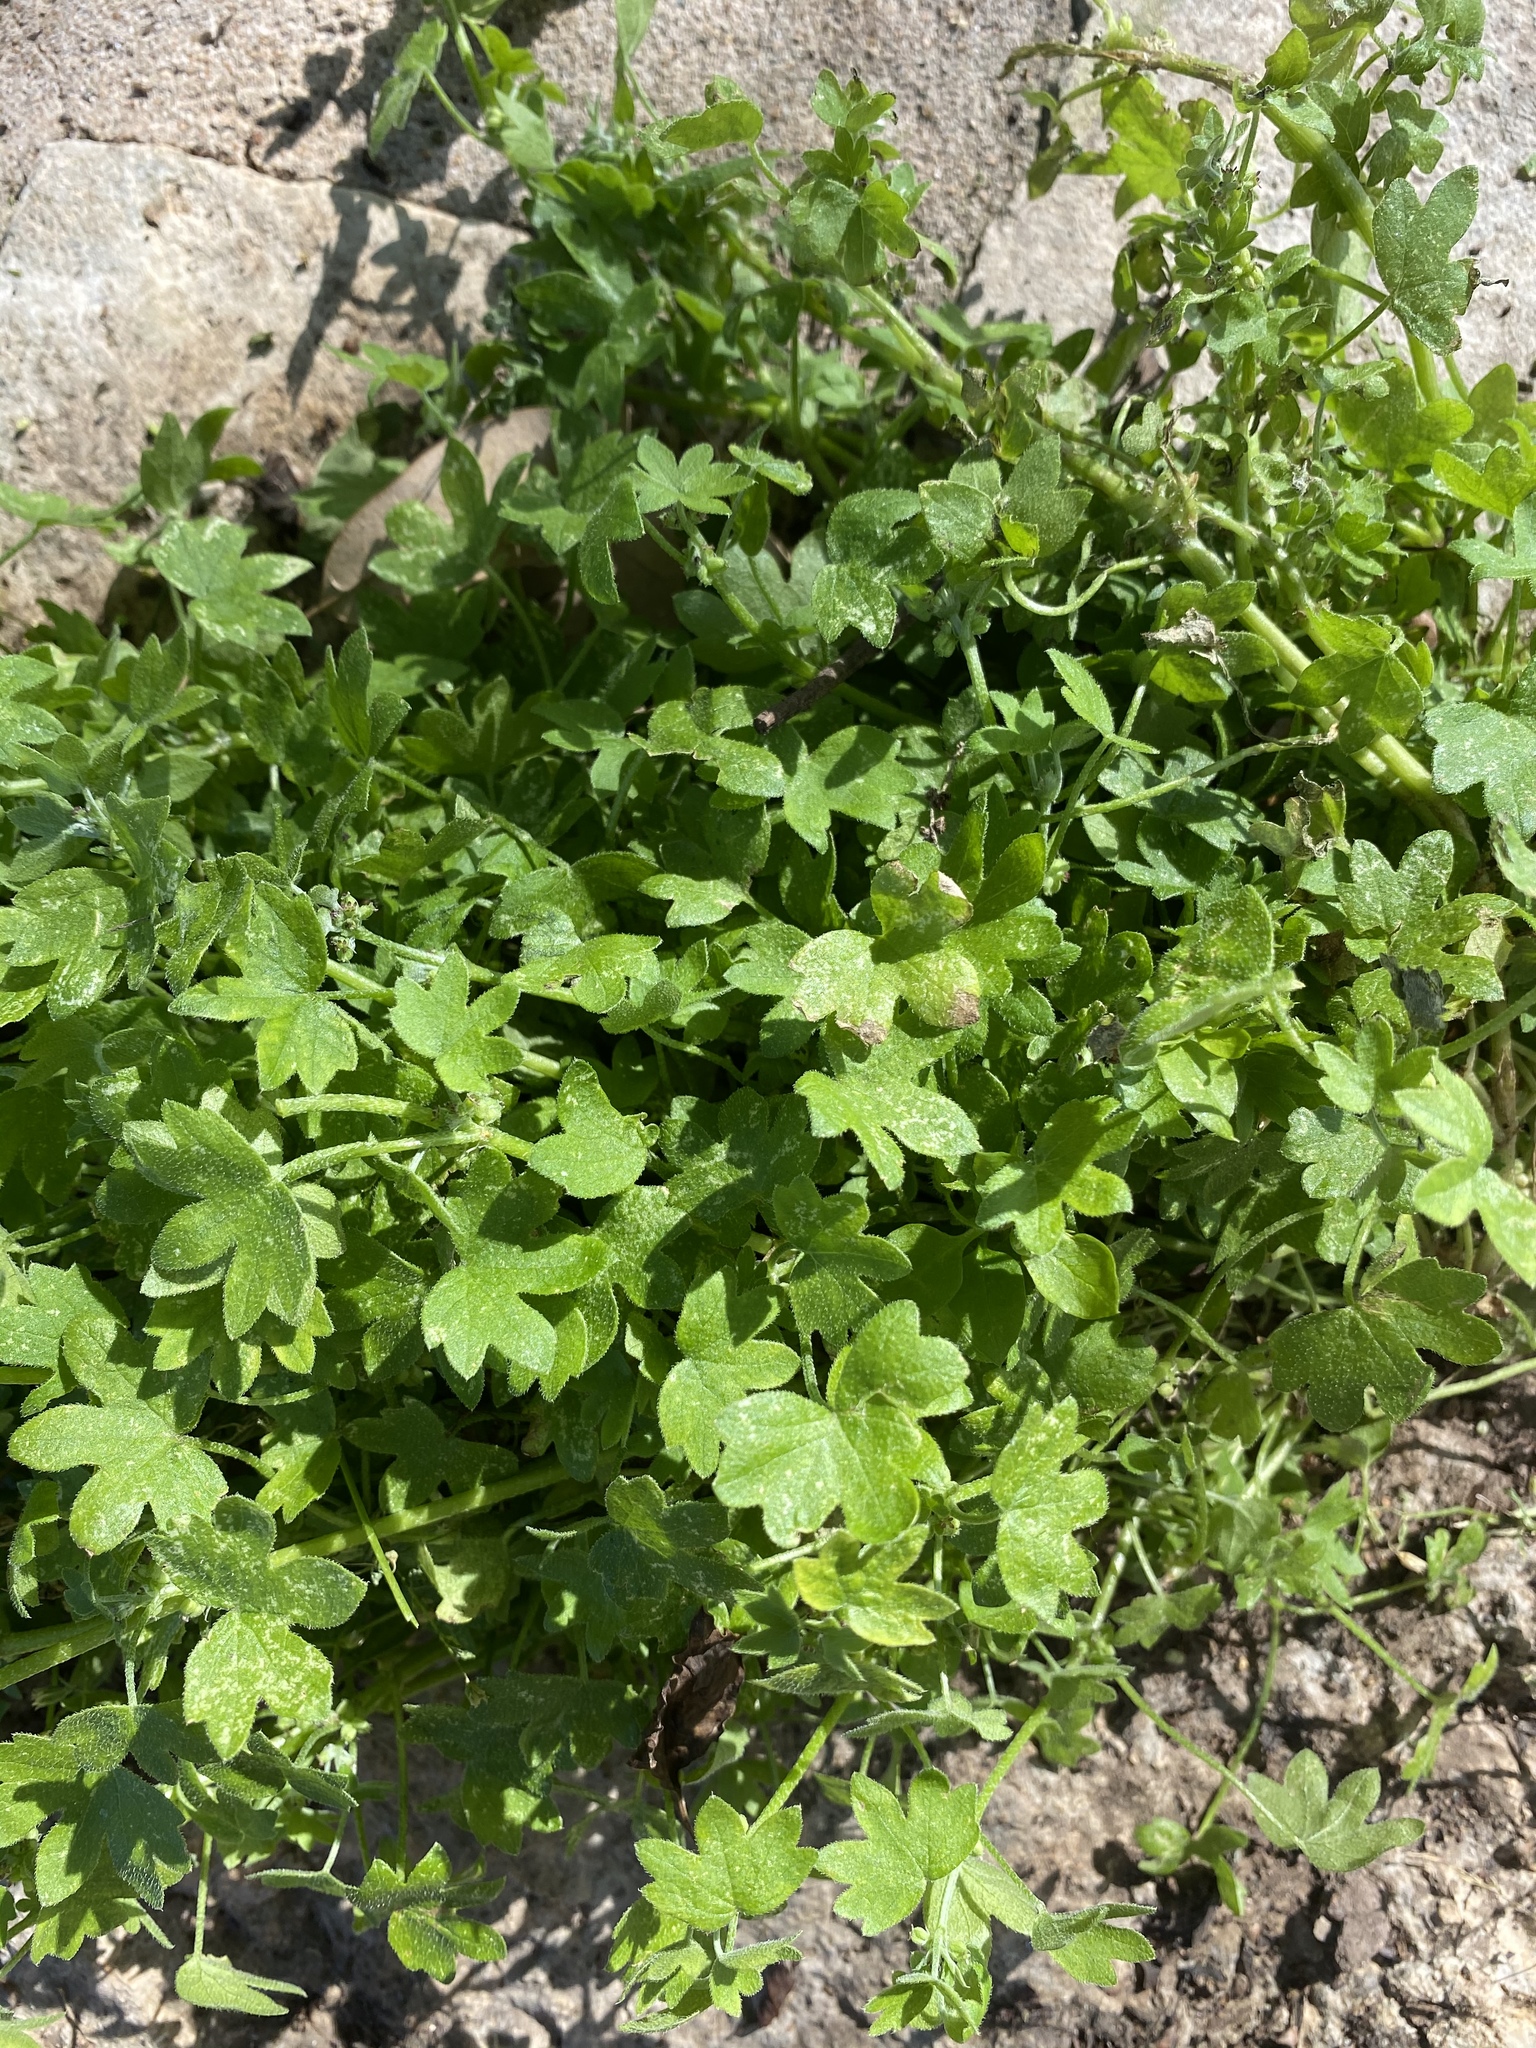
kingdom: Plantae
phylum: Tracheophyta
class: Magnoliopsida
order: Apiales
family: Apiaceae
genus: Bowlesia
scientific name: Bowlesia incana
